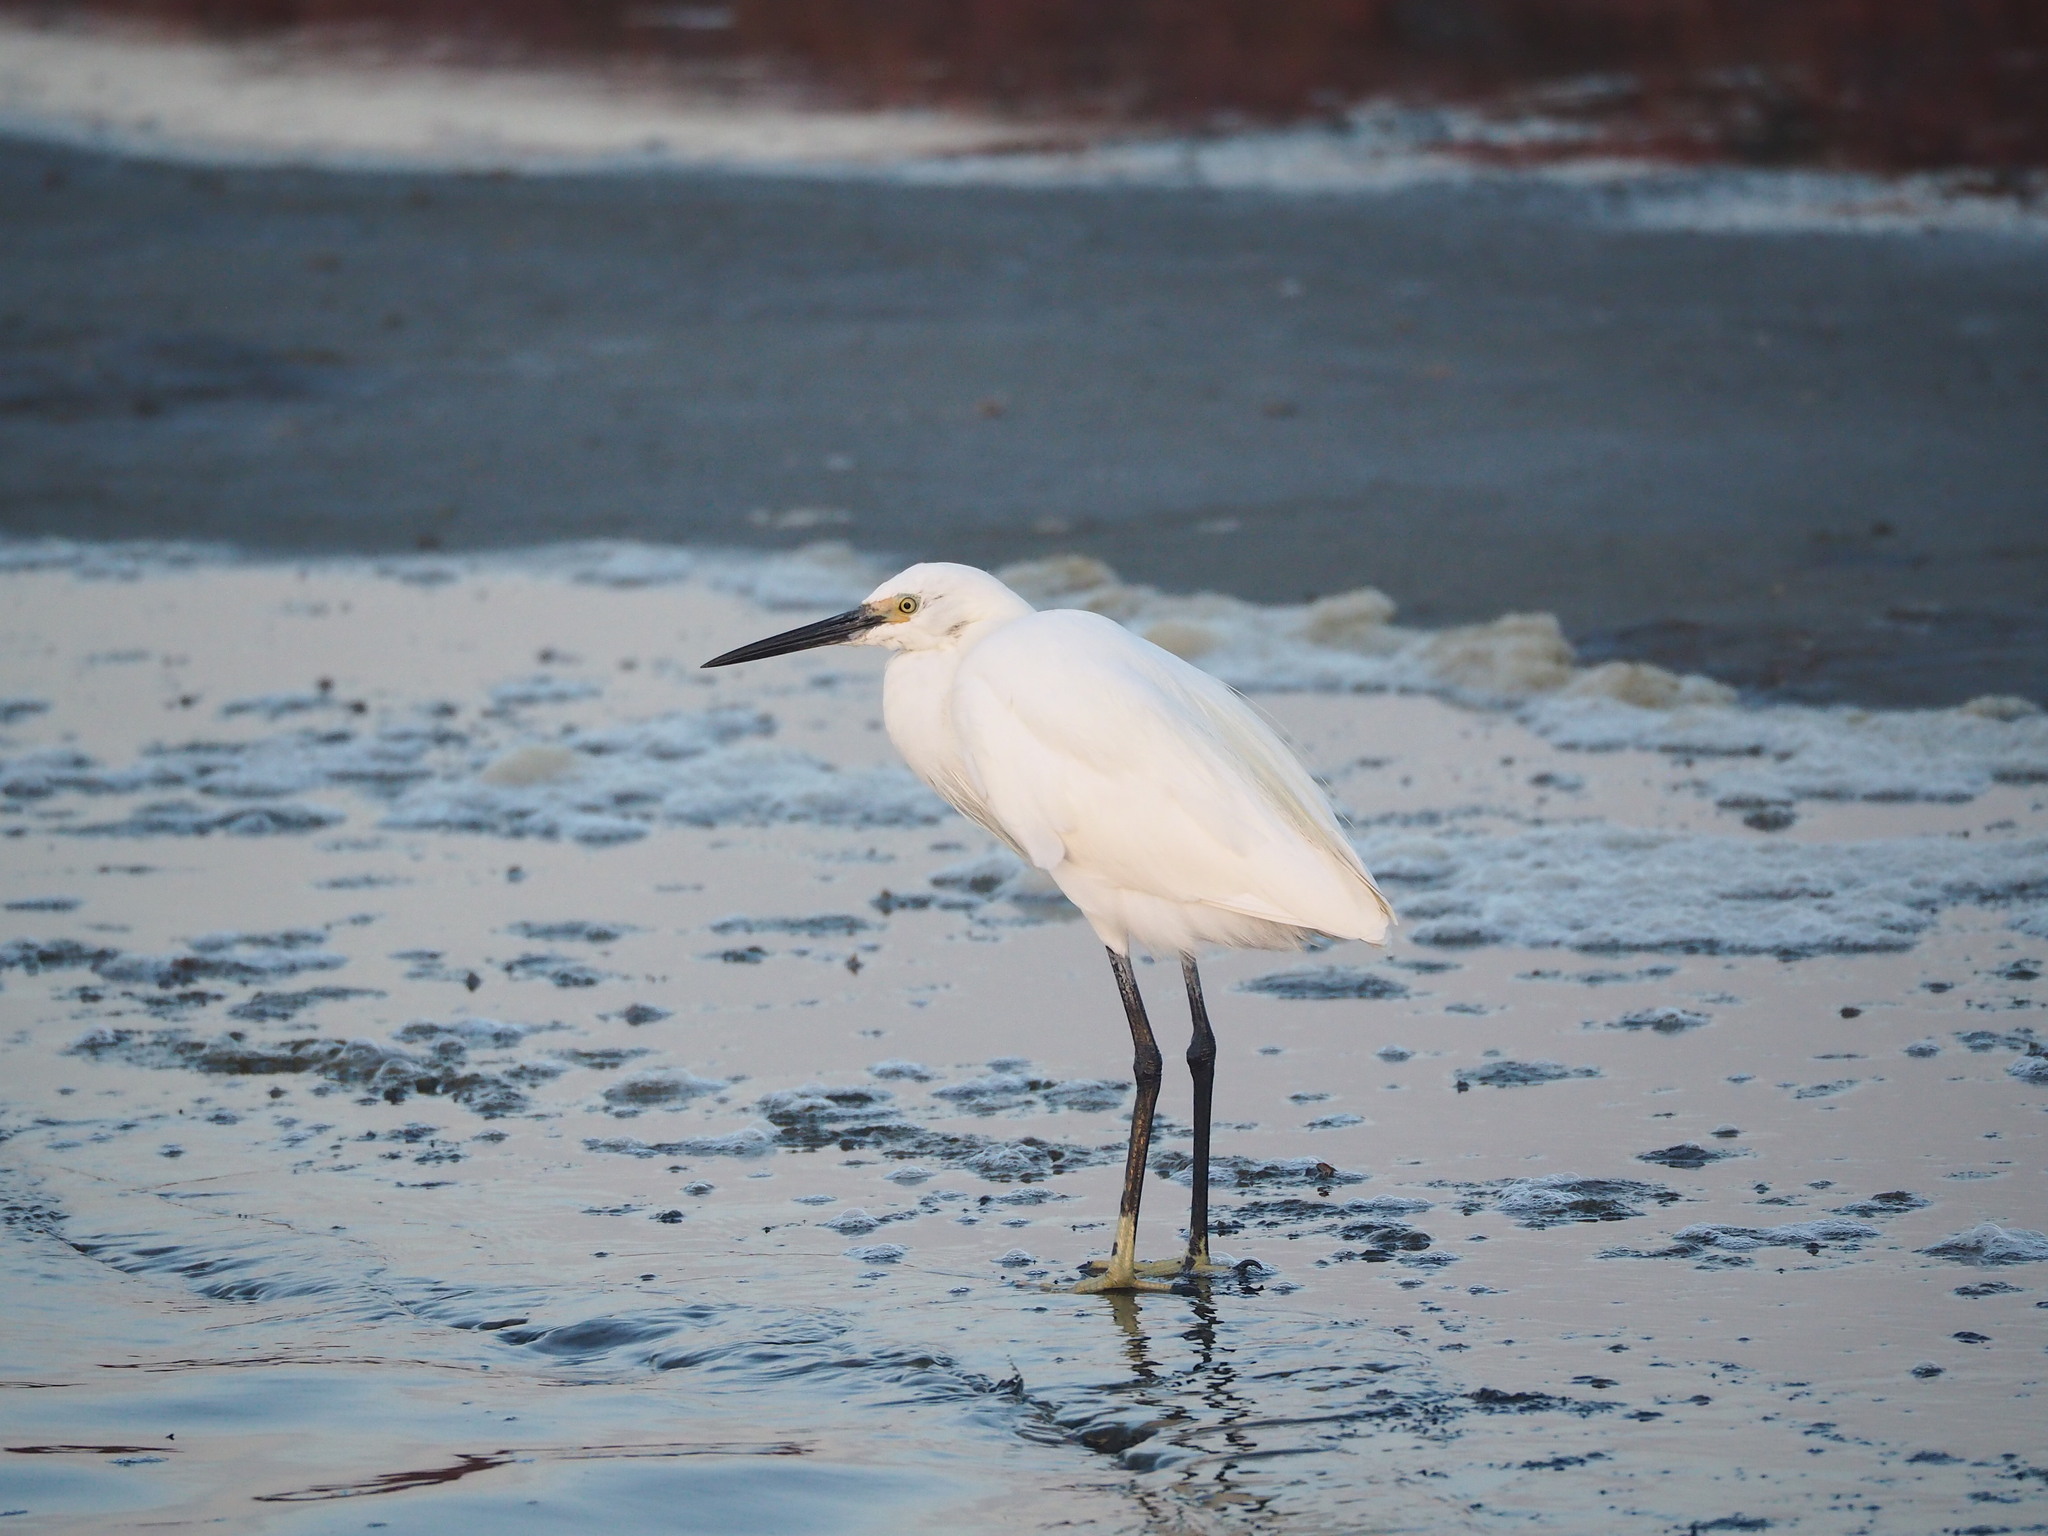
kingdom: Animalia
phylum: Chordata
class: Aves
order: Pelecaniformes
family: Ardeidae
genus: Egretta
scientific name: Egretta garzetta
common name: Little egret
